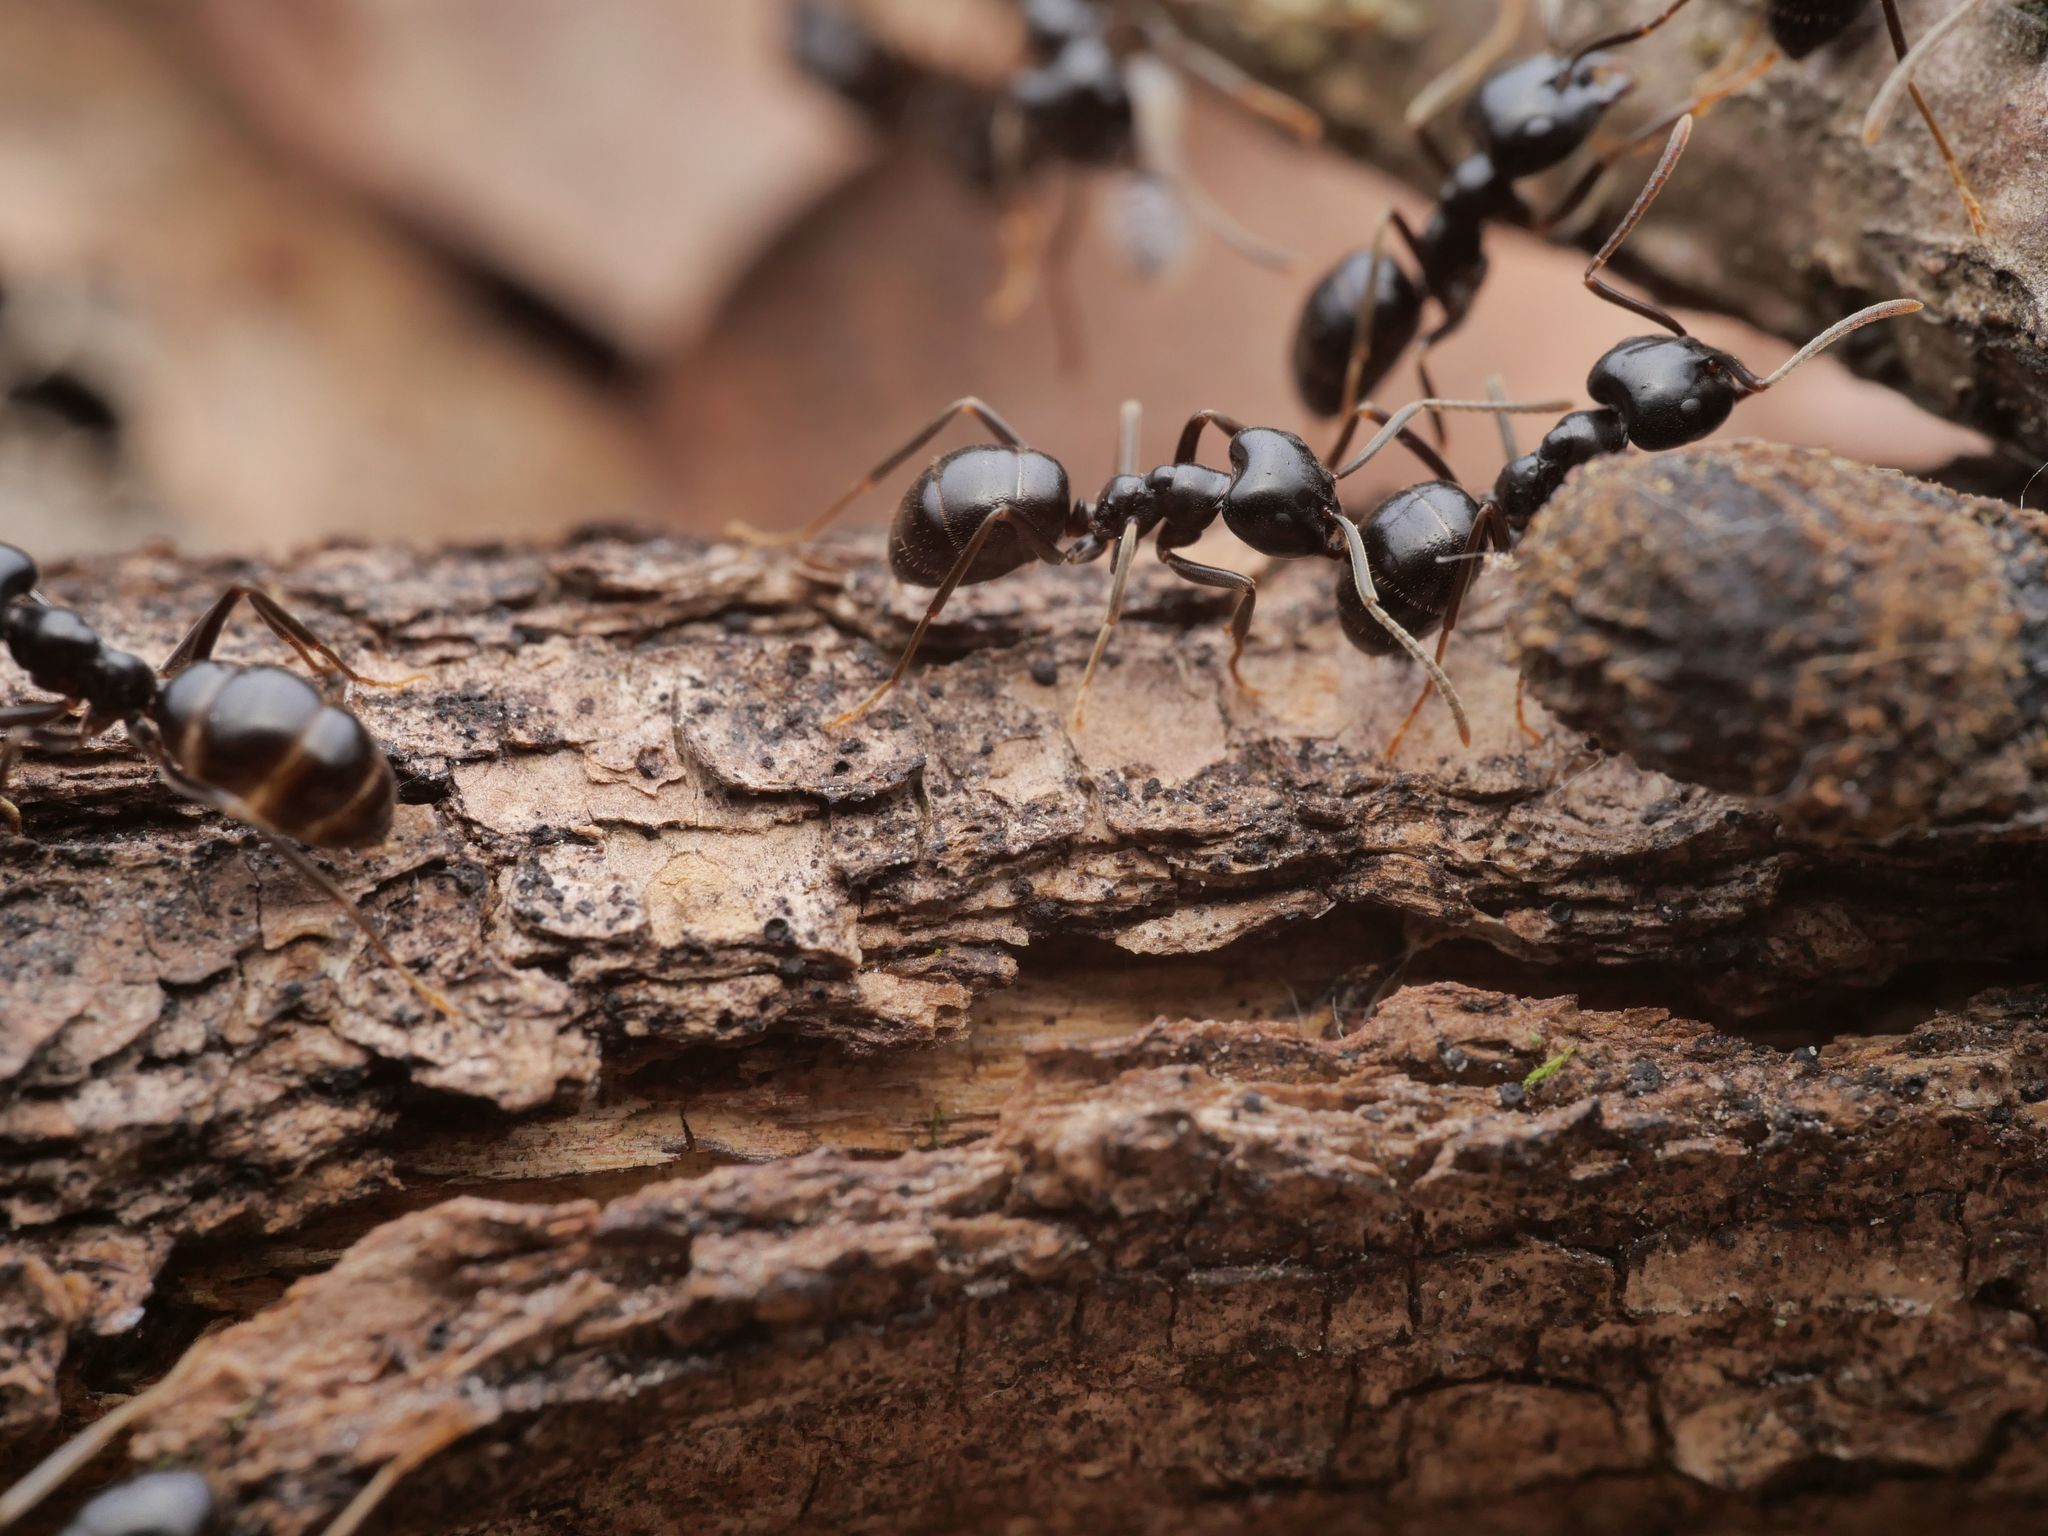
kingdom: Animalia
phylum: Arthropoda
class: Insecta
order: Hymenoptera
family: Formicidae
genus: Lasius
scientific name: Lasius fuliginosus
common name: Jet ant
